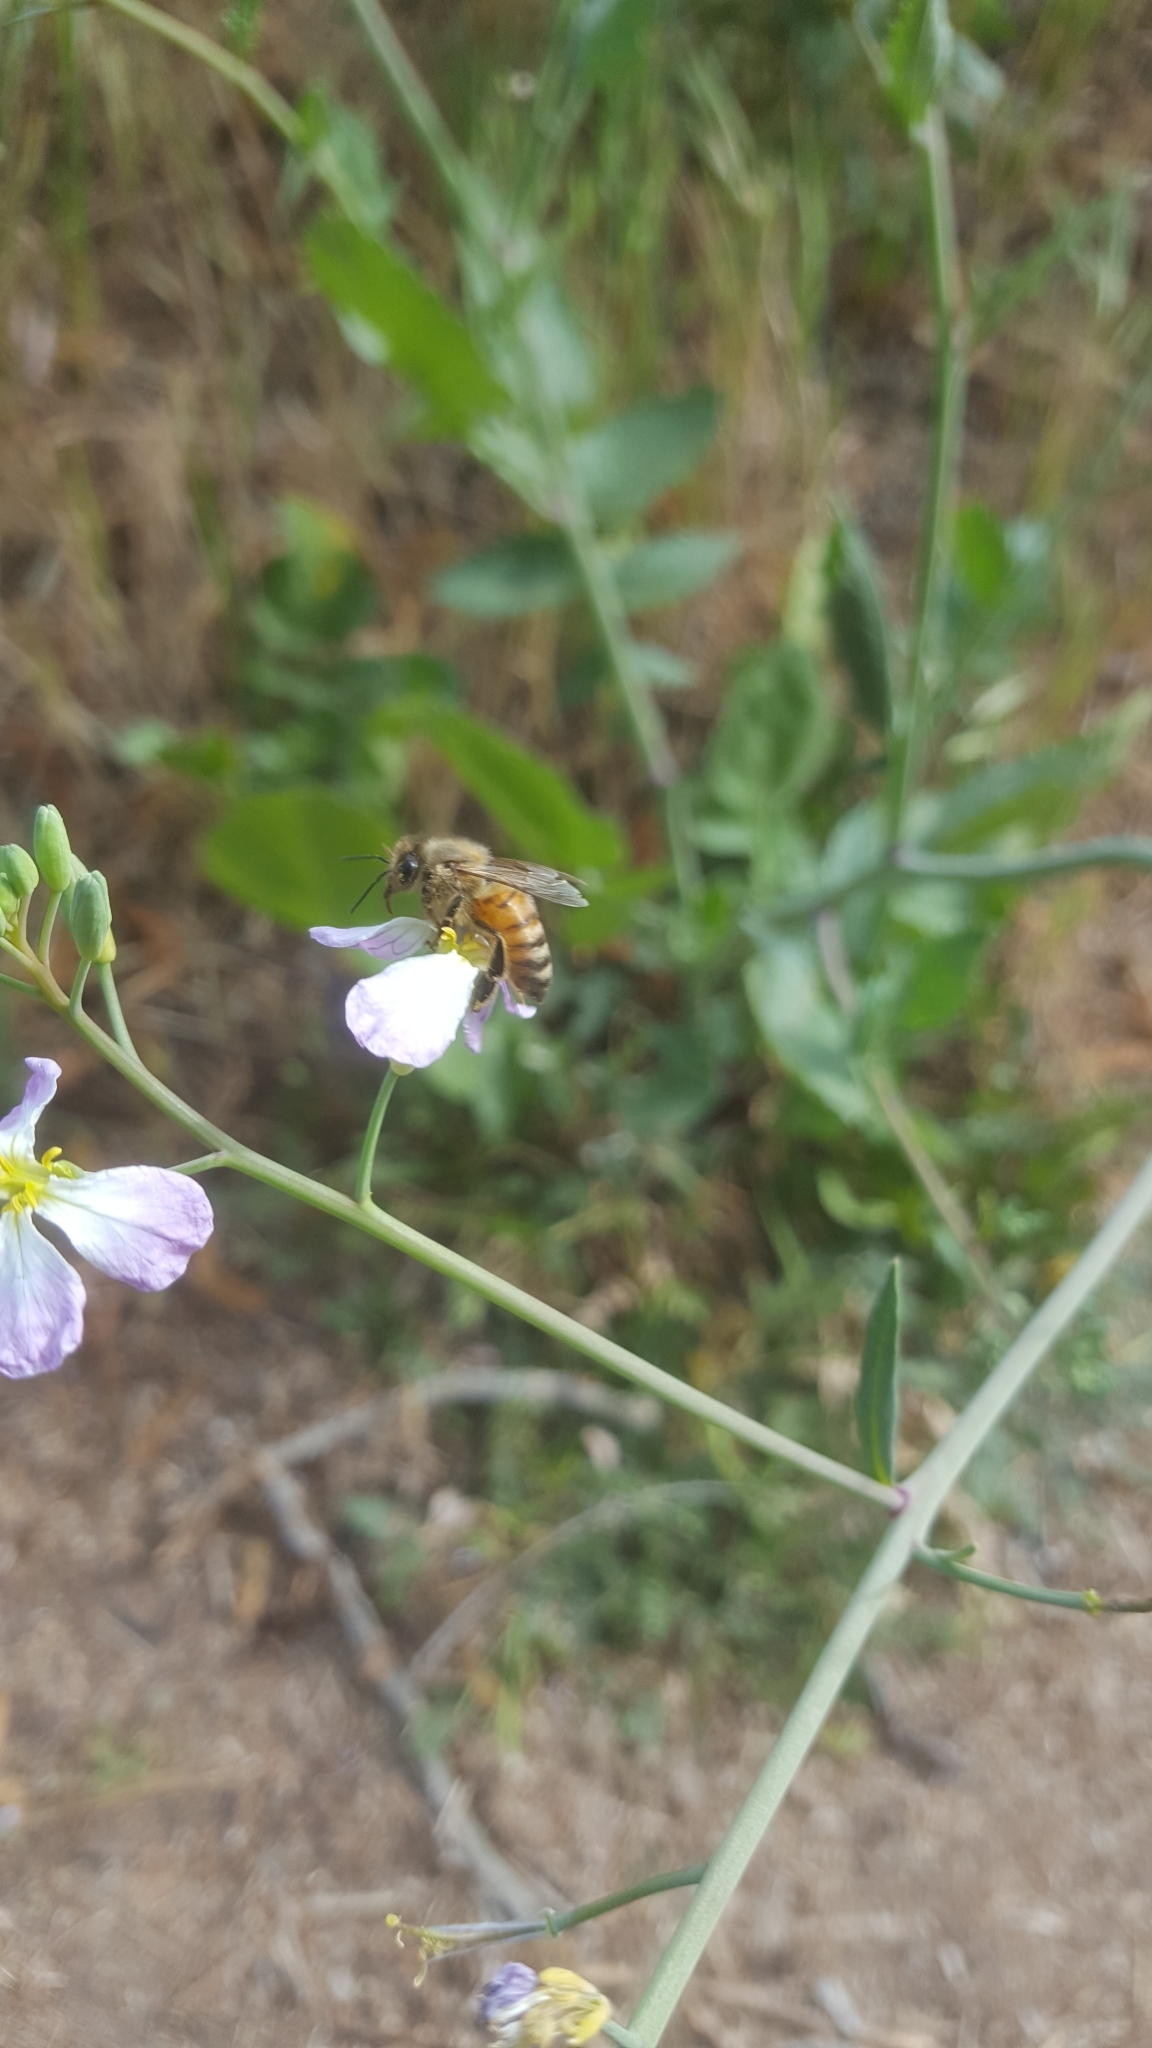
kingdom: Animalia
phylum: Arthropoda
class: Insecta
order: Hymenoptera
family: Apidae
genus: Apis
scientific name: Apis mellifera
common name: Honey bee
